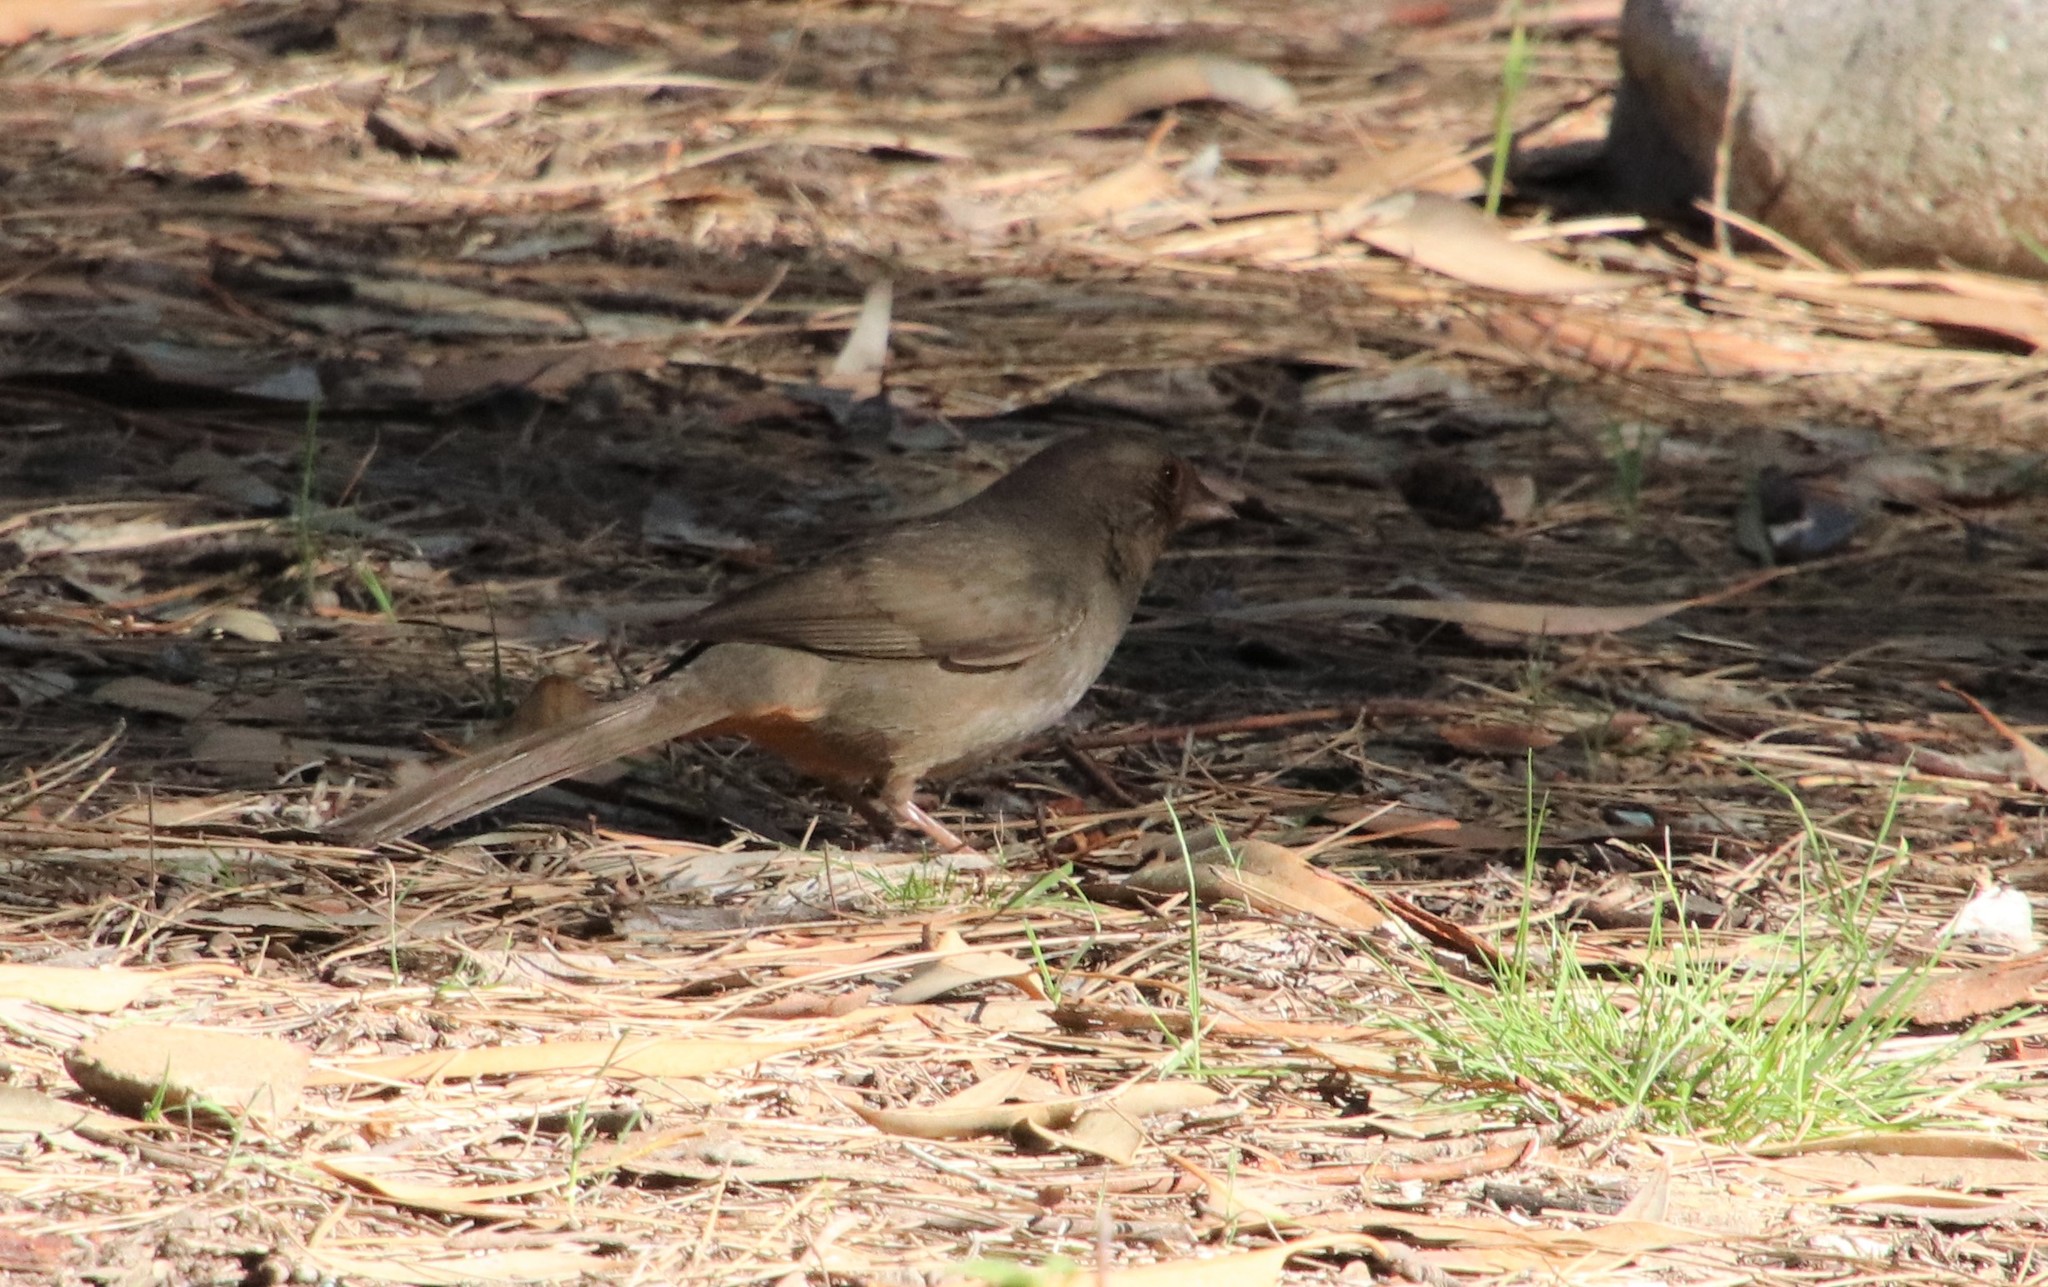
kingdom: Animalia
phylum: Chordata
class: Aves
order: Passeriformes
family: Passerellidae
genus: Melozone
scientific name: Melozone crissalis
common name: California towhee
